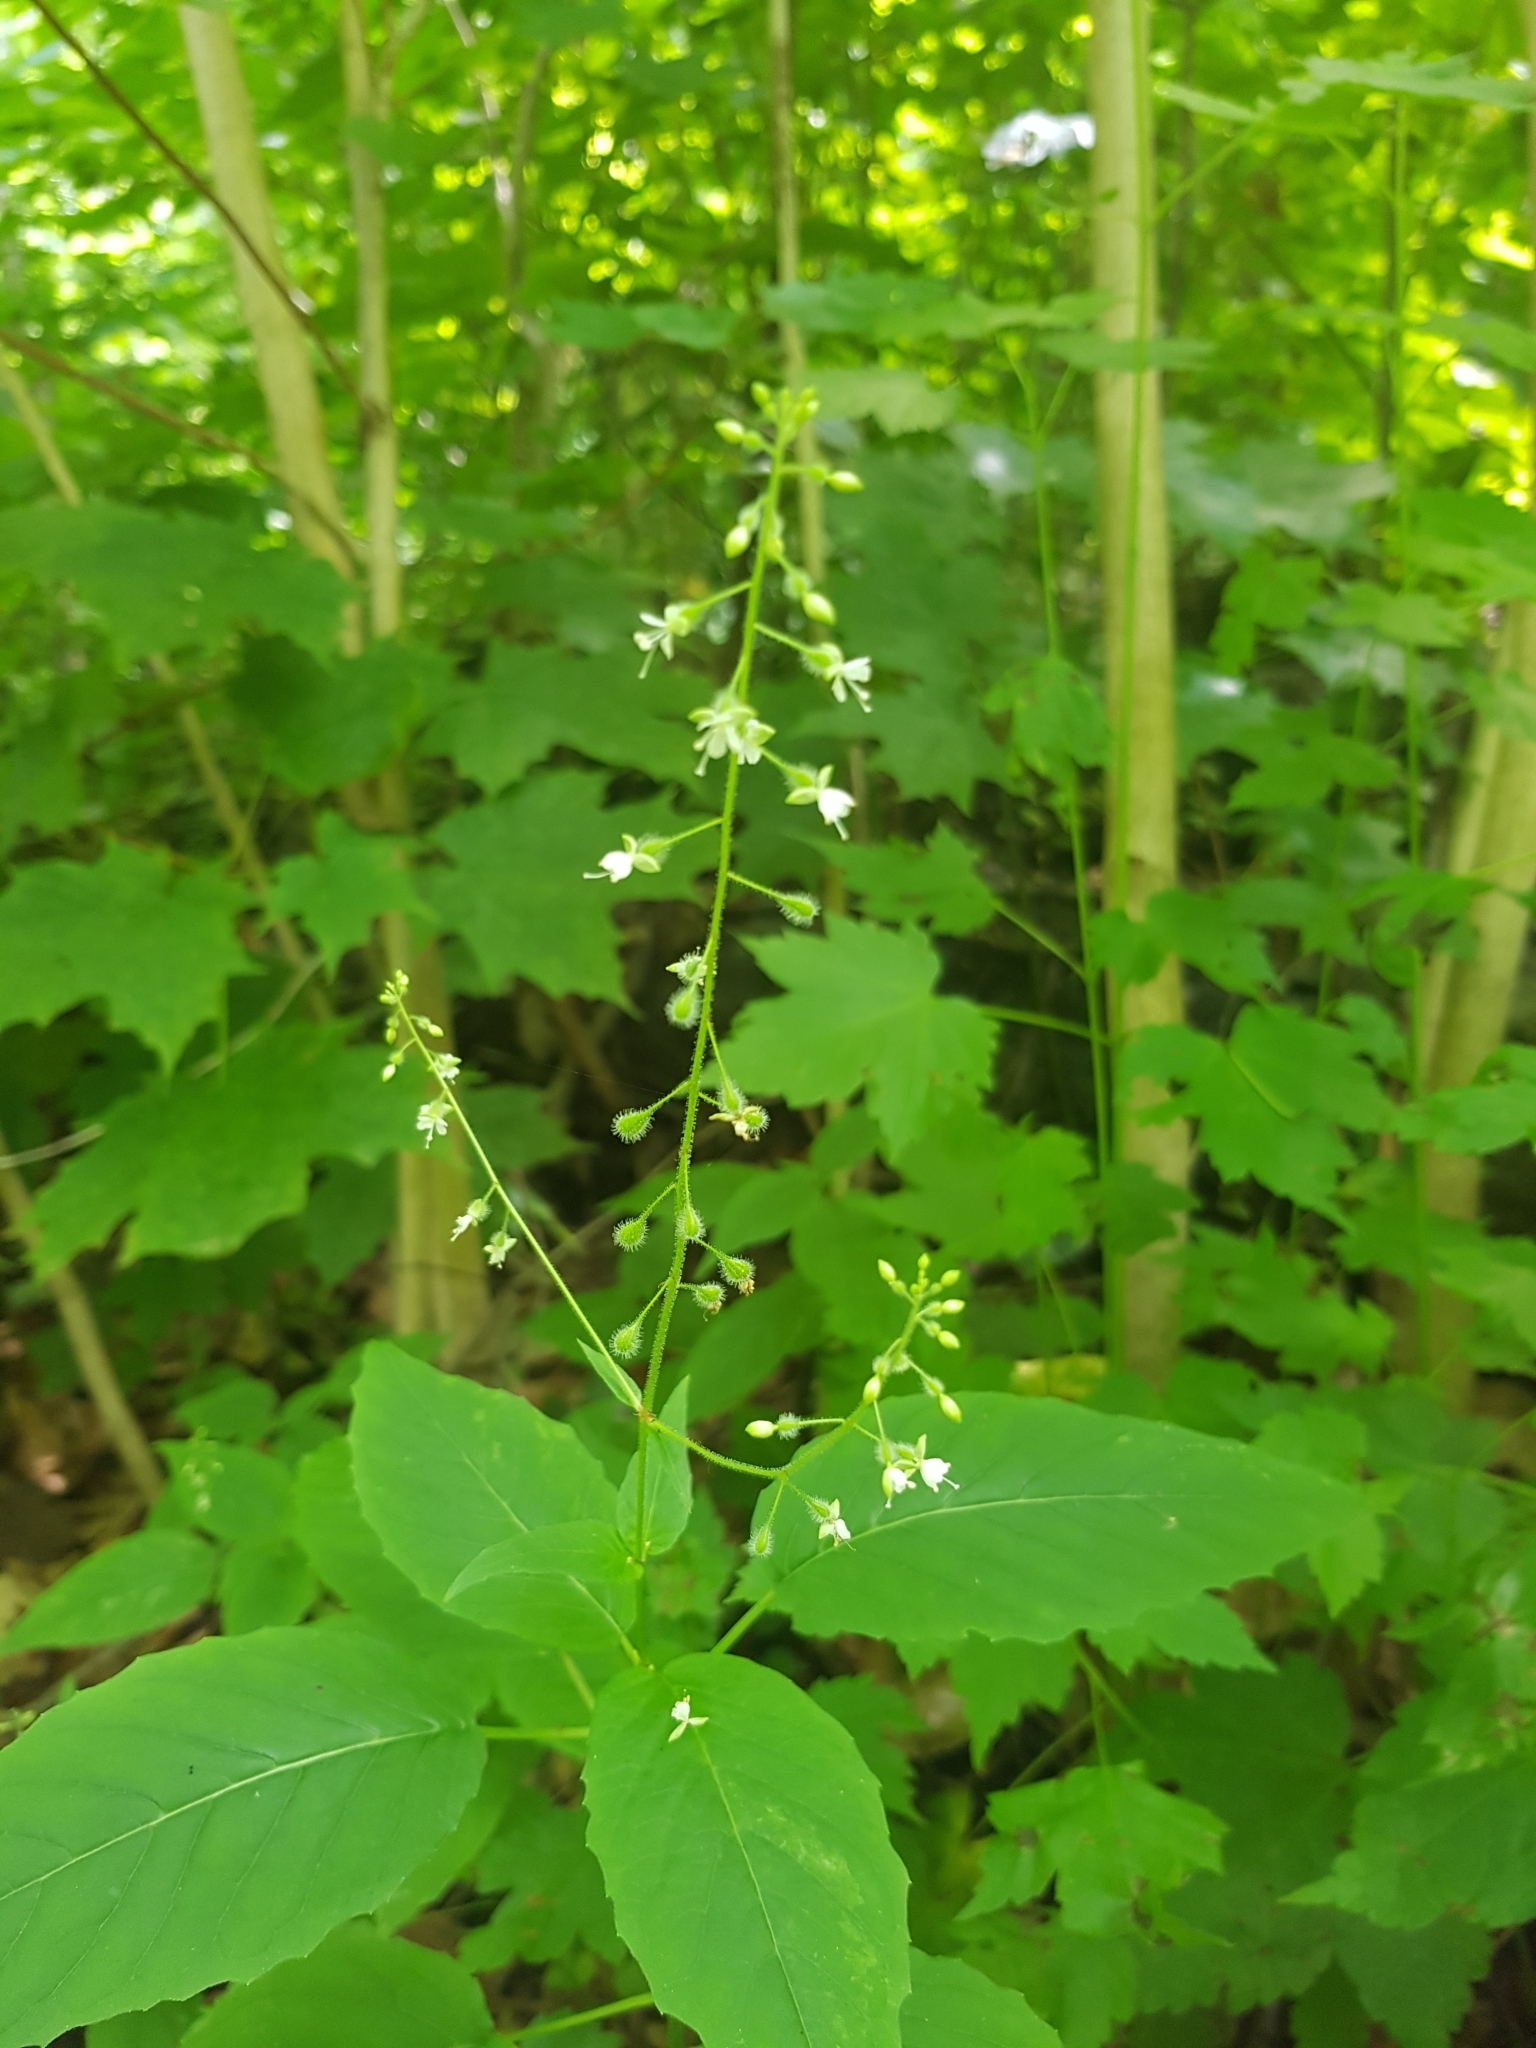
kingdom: Plantae
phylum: Tracheophyta
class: Magnoliopsida
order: Myrtales
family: Onagraceae
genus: Circaea
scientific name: Circaea canadensis
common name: Broad-leaved enchanter's nightshade
